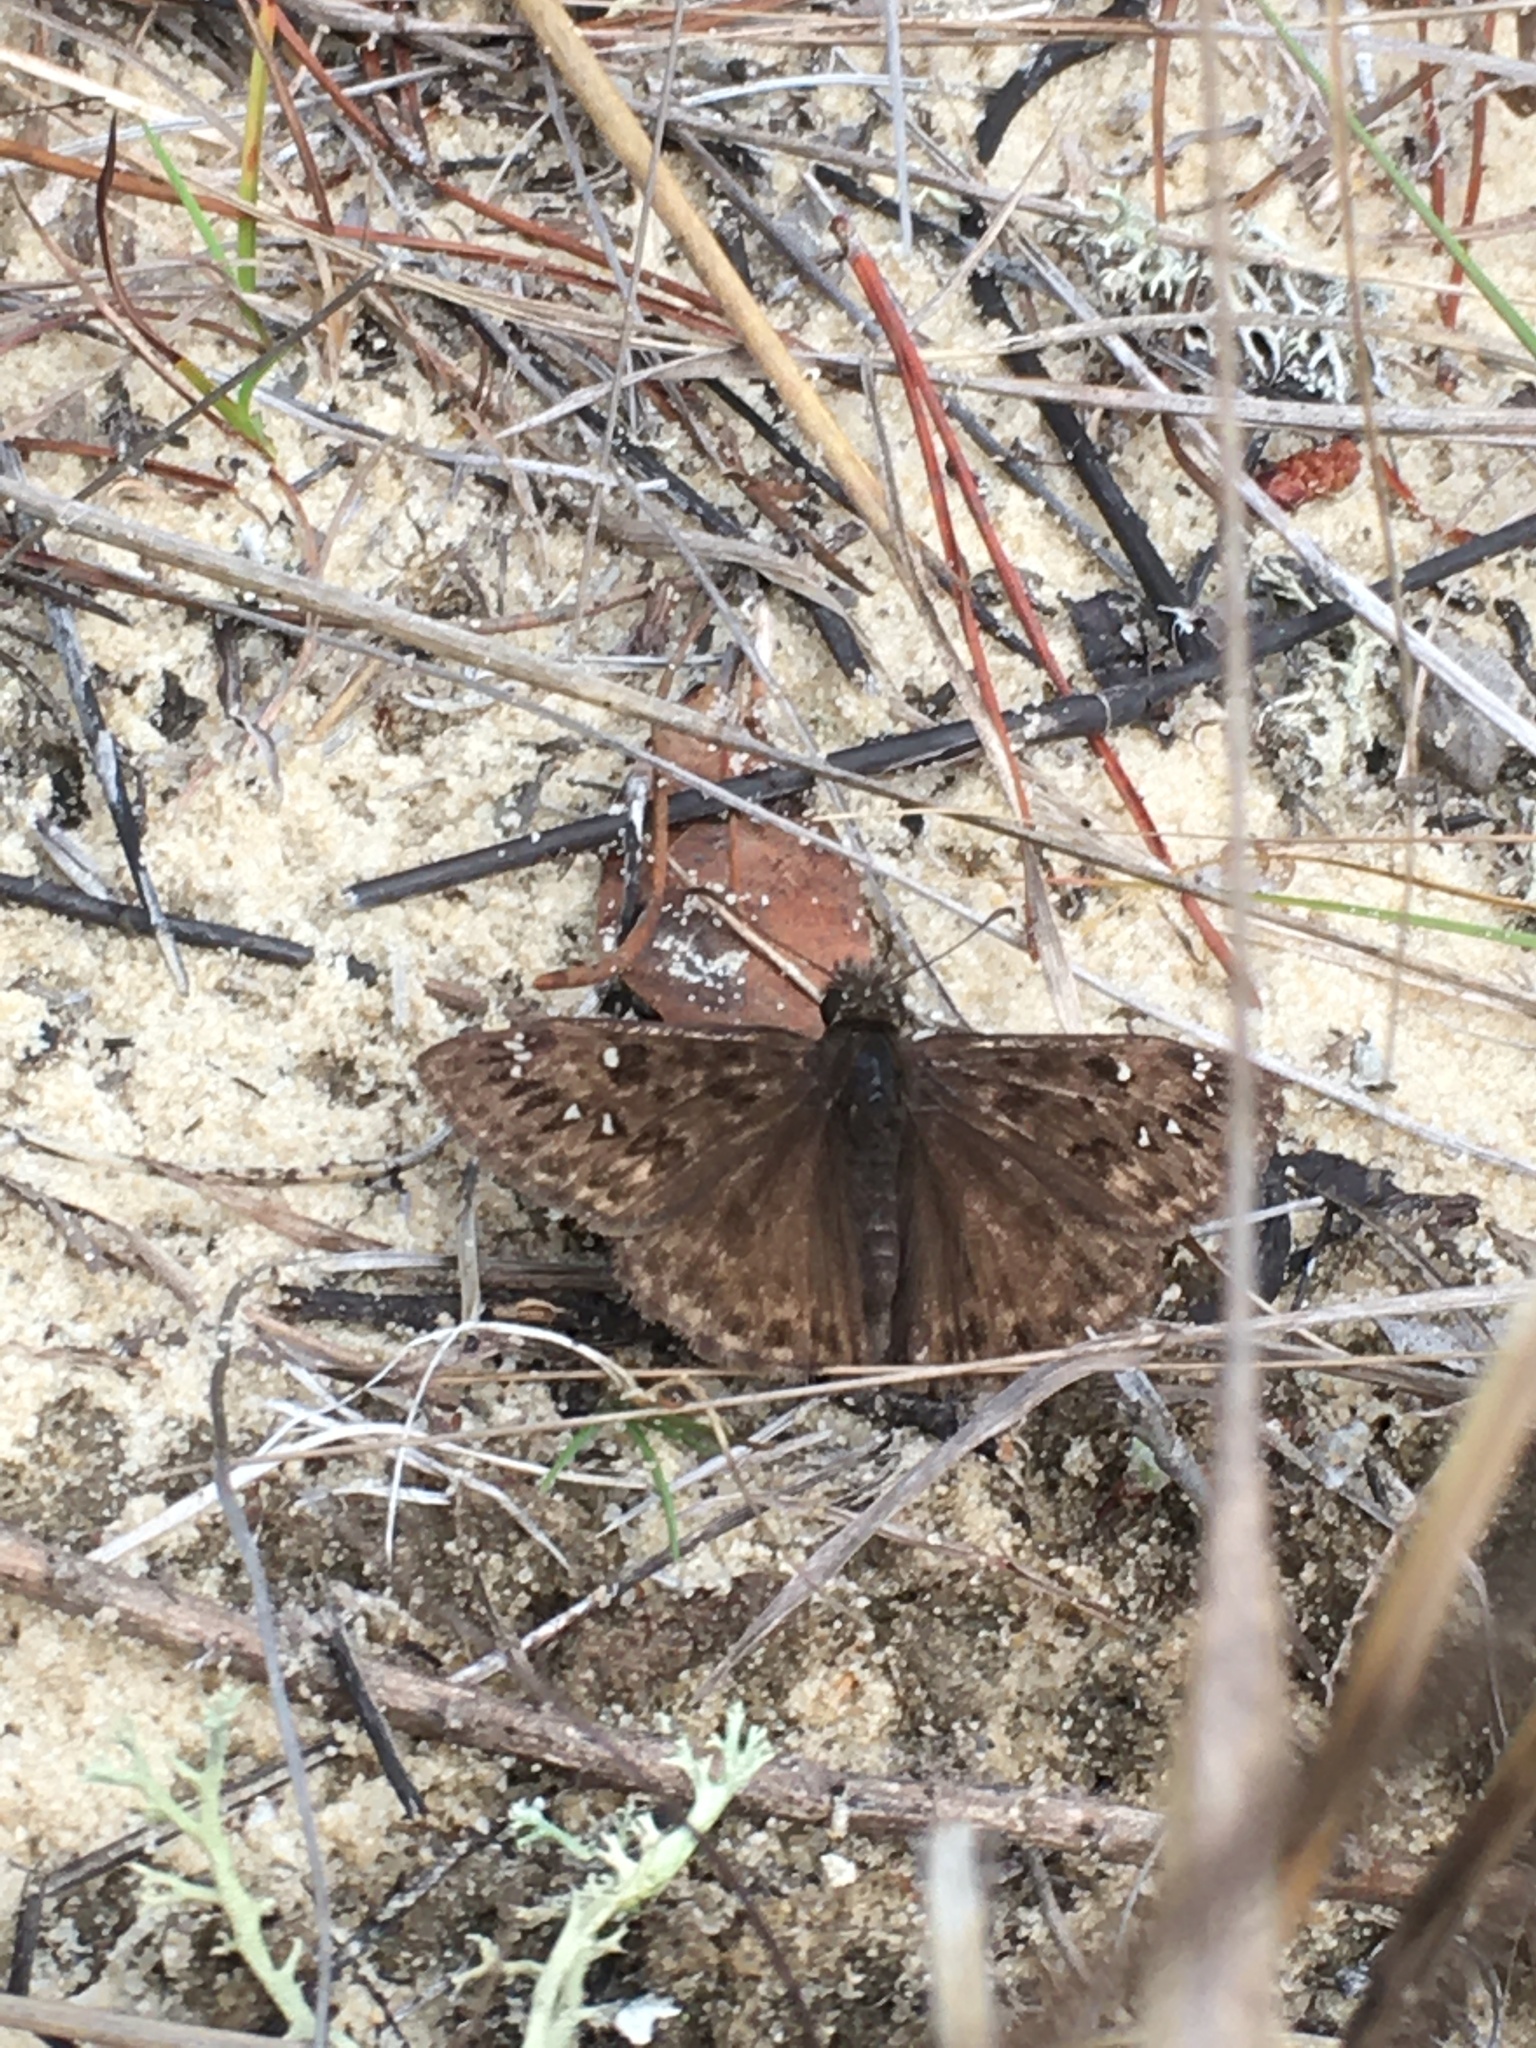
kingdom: Animalia
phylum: Arthropoda
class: Insecta
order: Lepidoptera
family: Hesperiidae
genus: Erynnis
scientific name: Erynnis horatius
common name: Horace's duskywing
